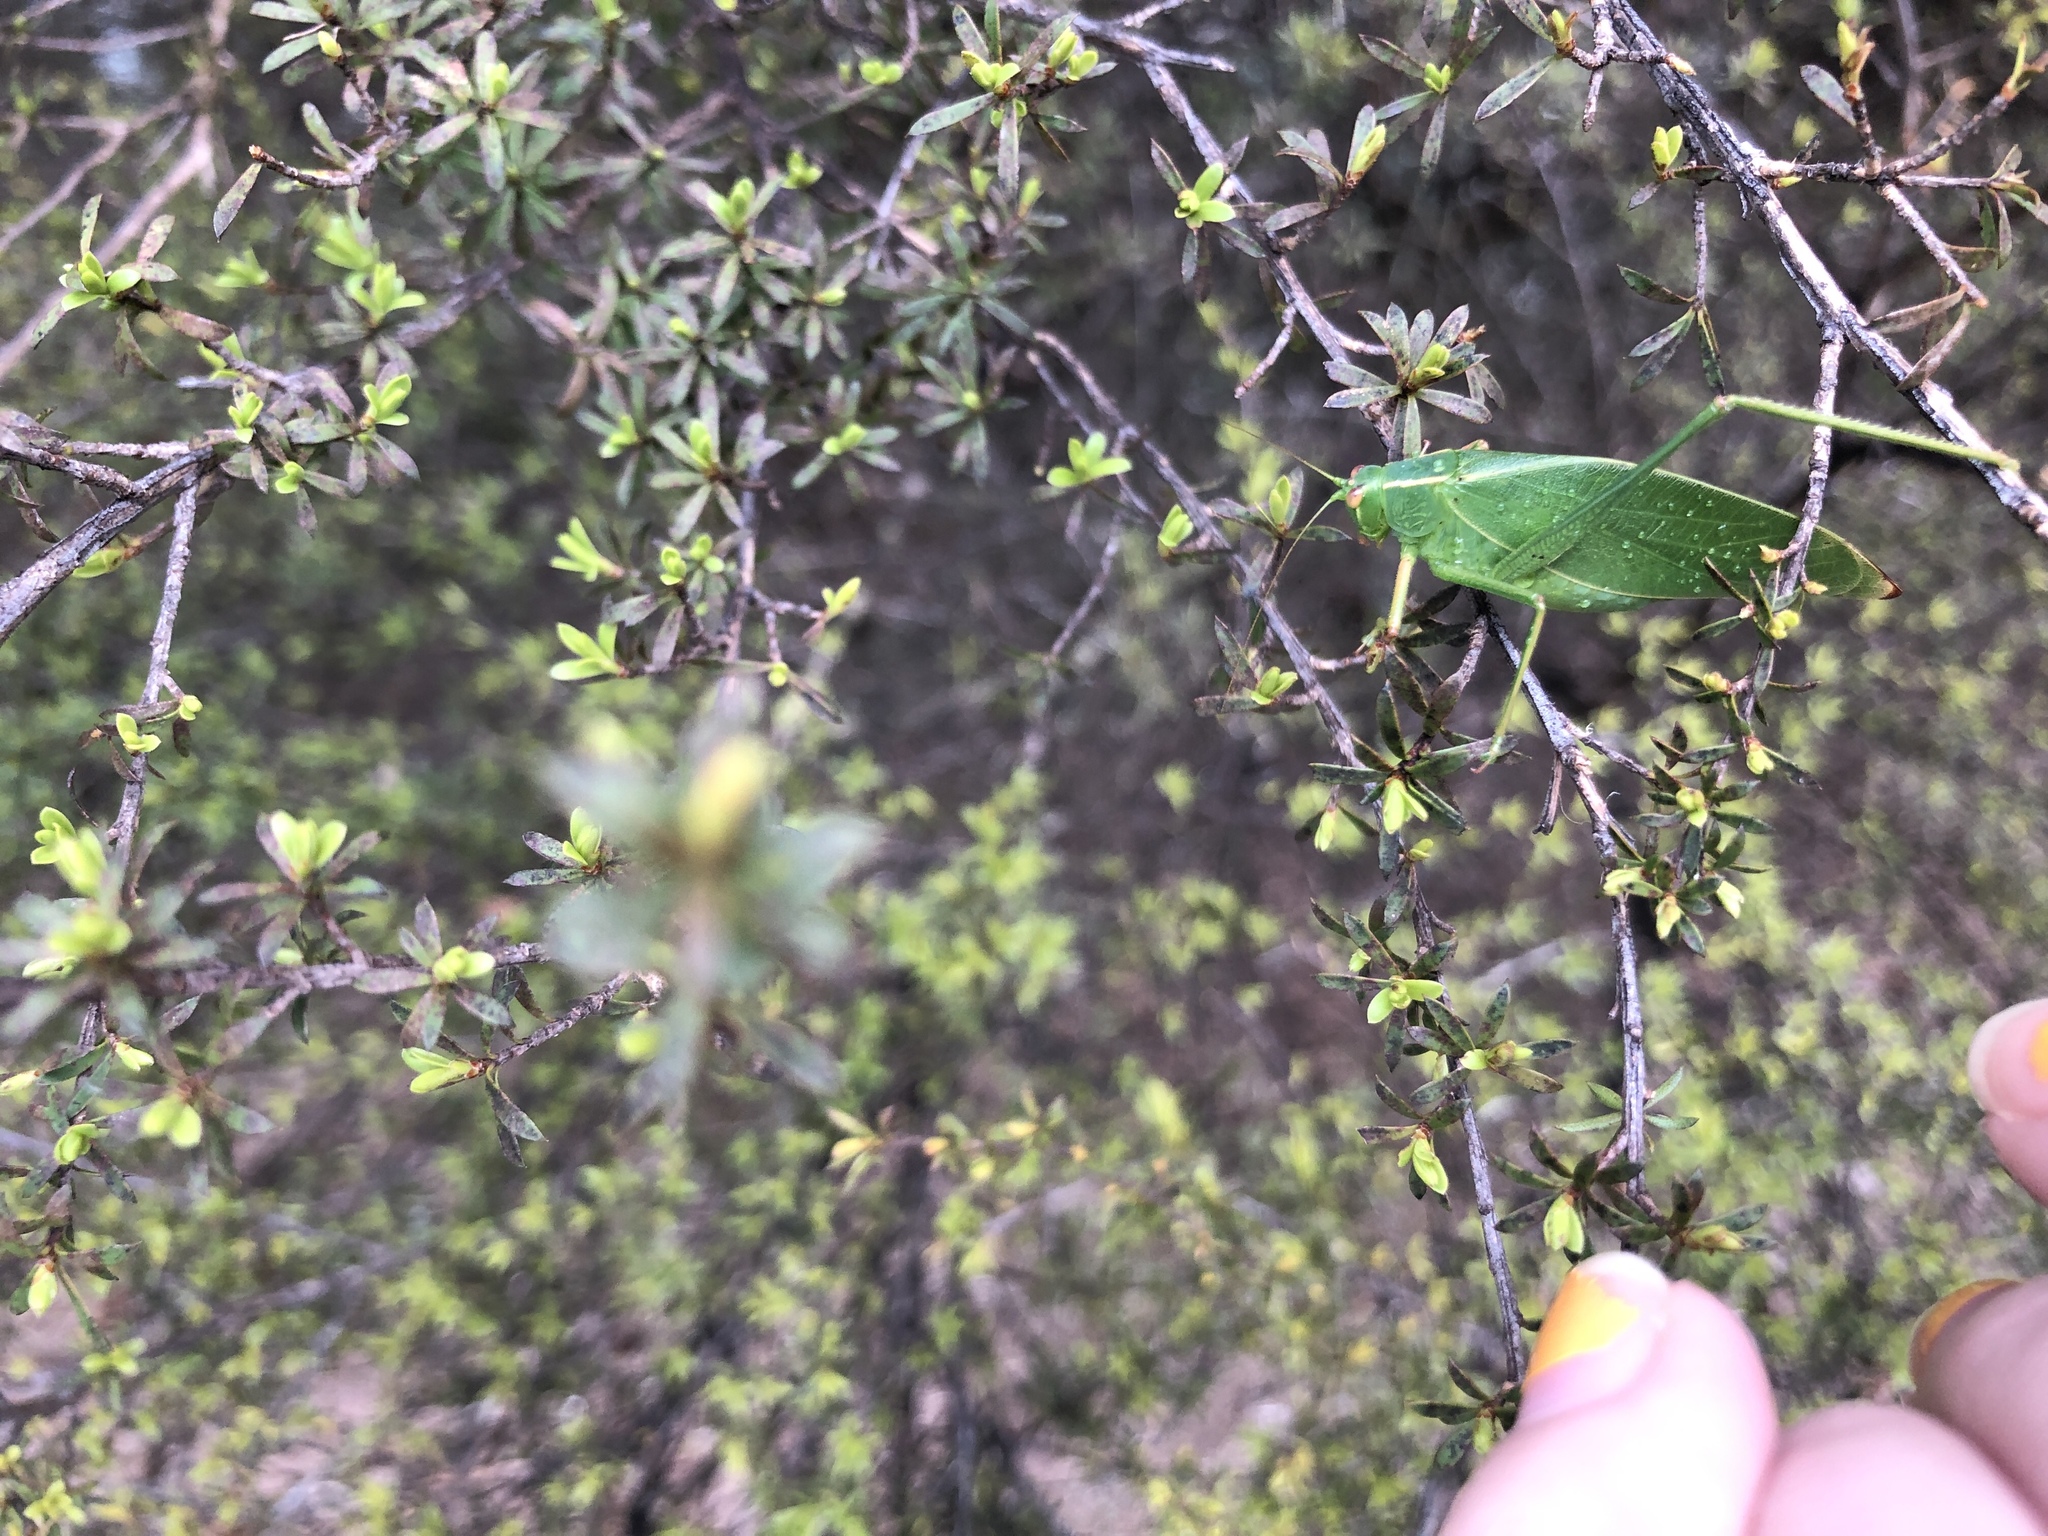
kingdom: Animalia
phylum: Arthropoda
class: Insecta
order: Orthoptera
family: Tettigoniidae
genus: Caedicia
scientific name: Caedicia simplex
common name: Common garden katydid
